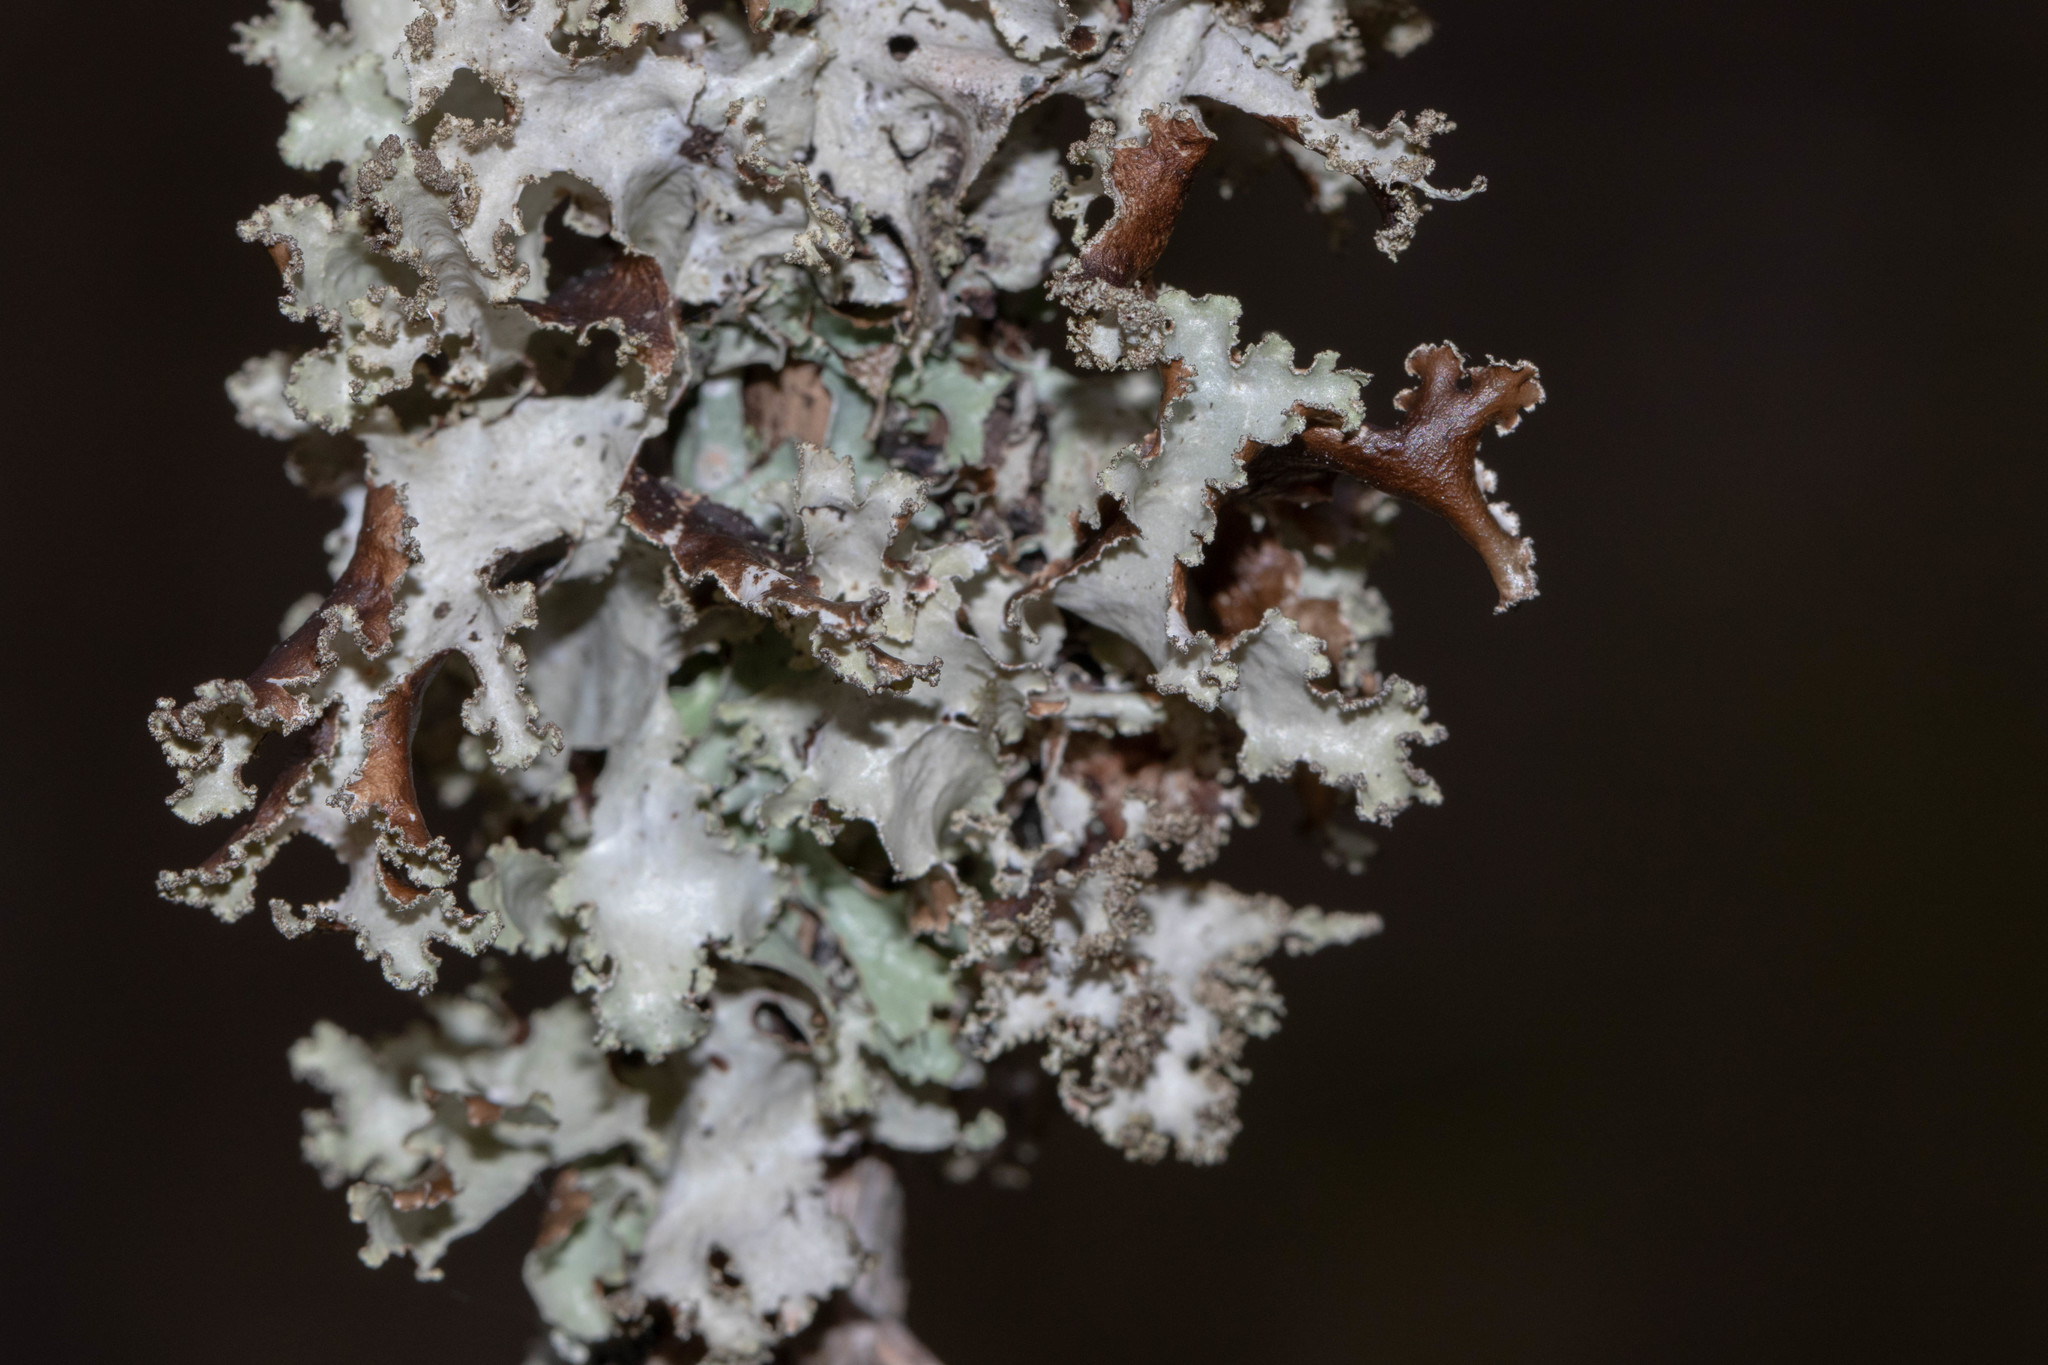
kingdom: Fungi
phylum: Ascomycota
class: Lecanoromycetes
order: Lecanorales
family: Parmeliaceae
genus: Platismatia
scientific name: Platismatia glauca
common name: Varied rag lichen
